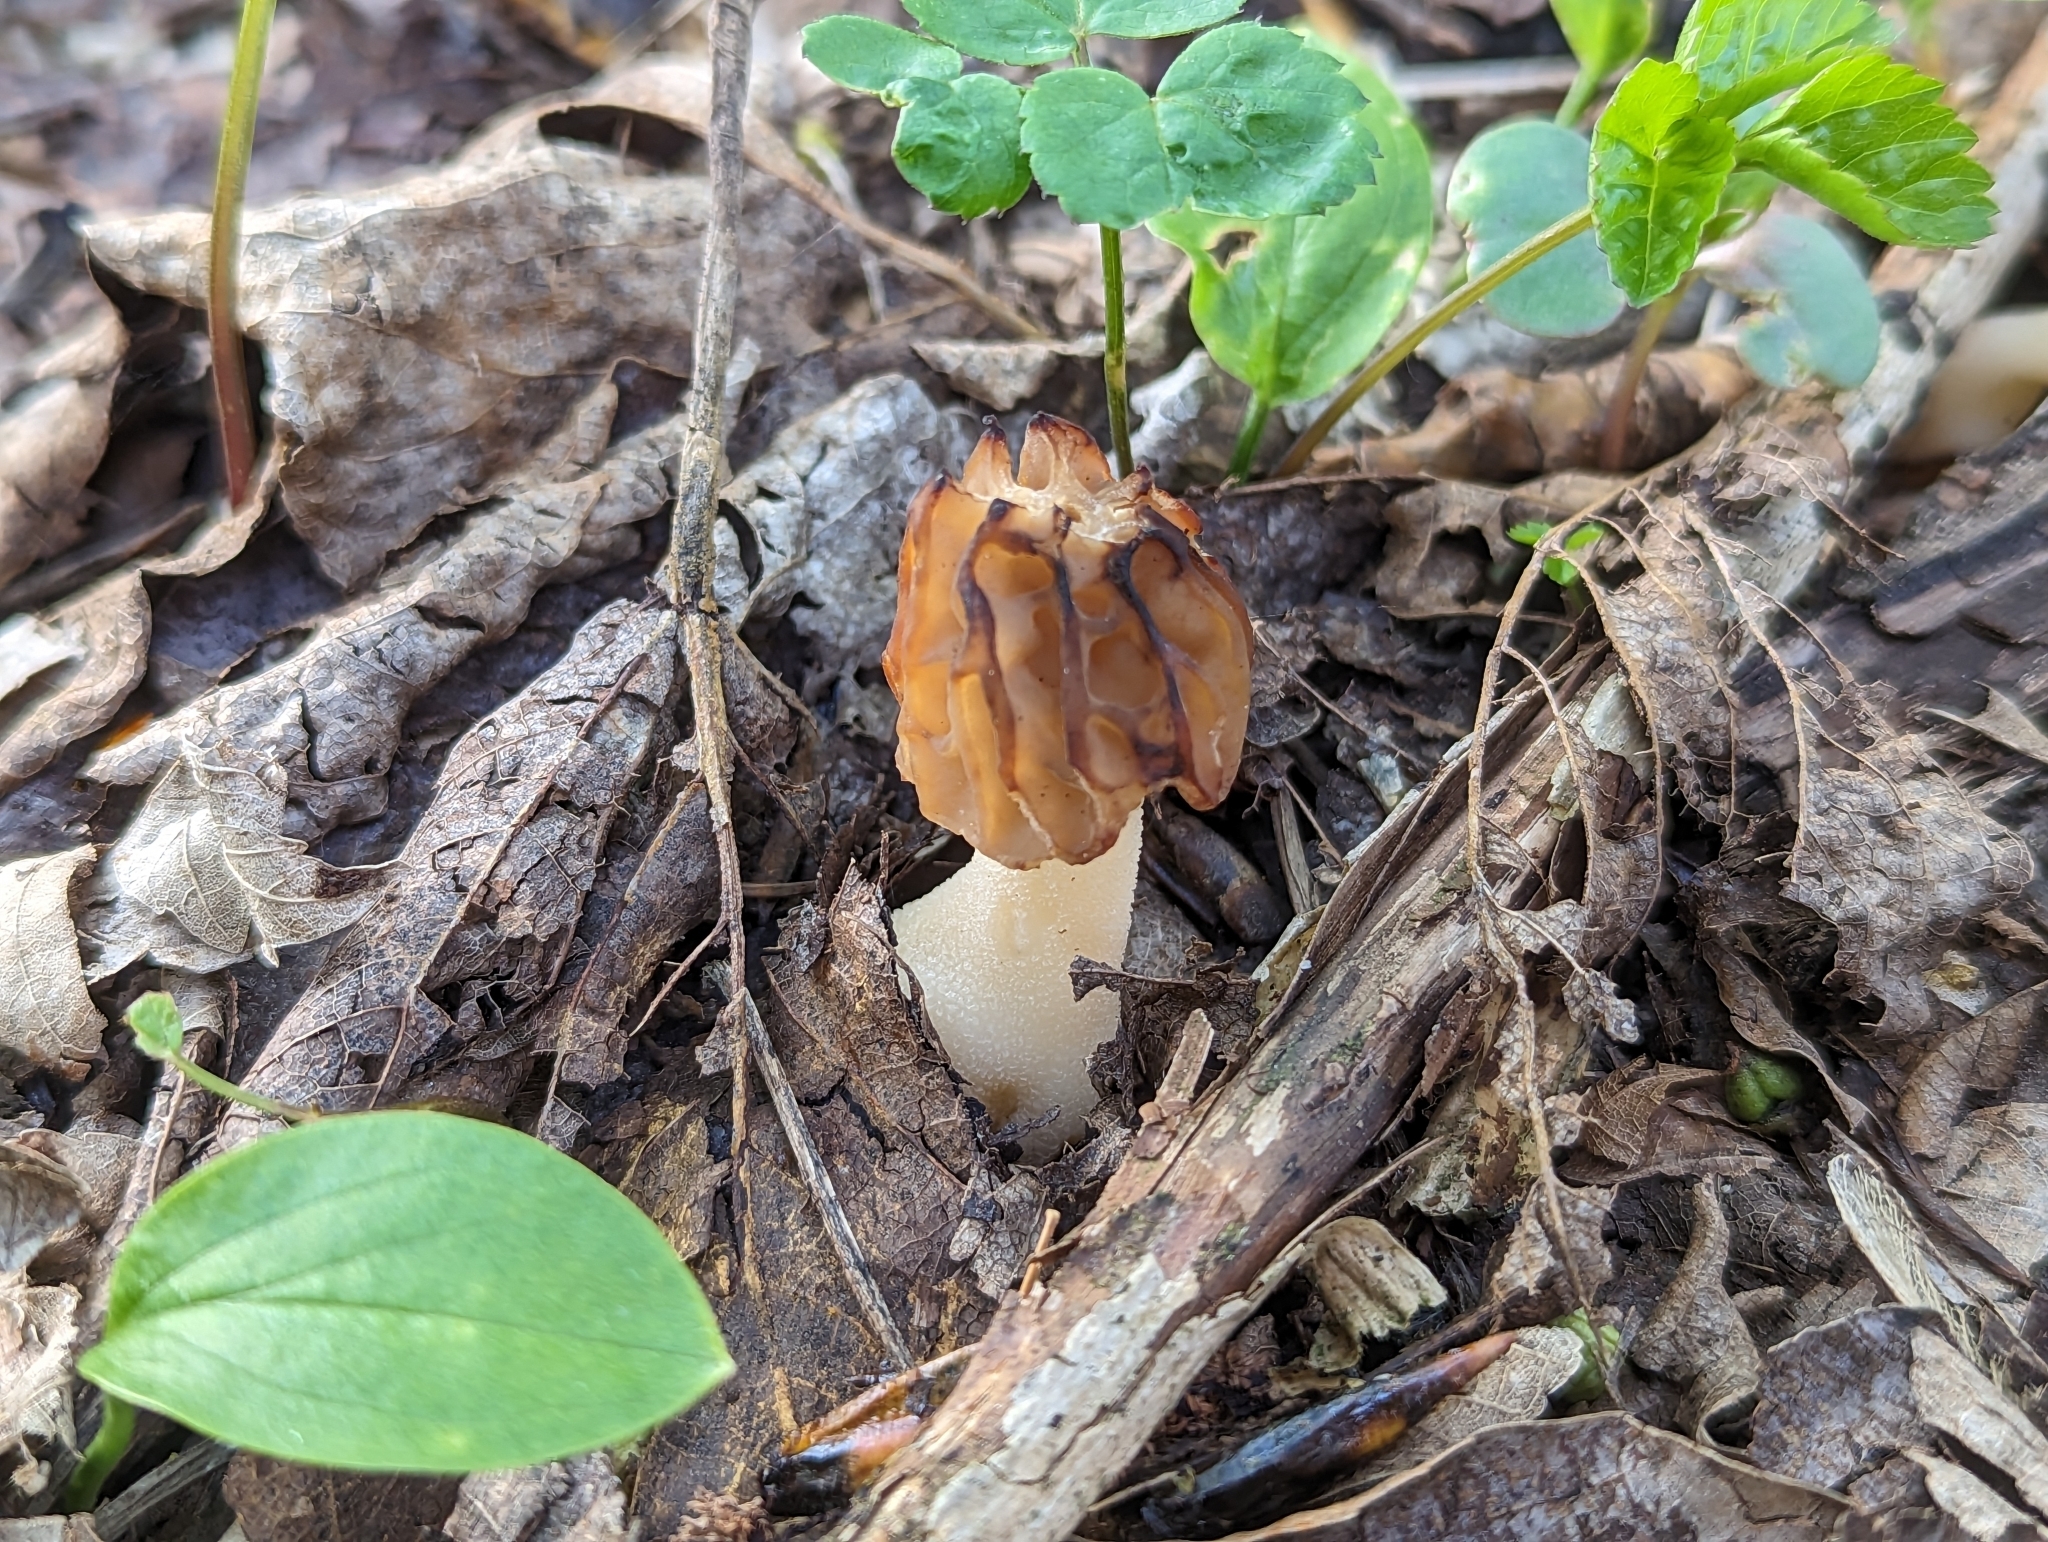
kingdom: Fungi
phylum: Ascomycota
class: Pezizomycetes
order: Pezizales
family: Morchellaceae
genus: Morchella
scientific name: Morchella semilibera
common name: Semifree morel
